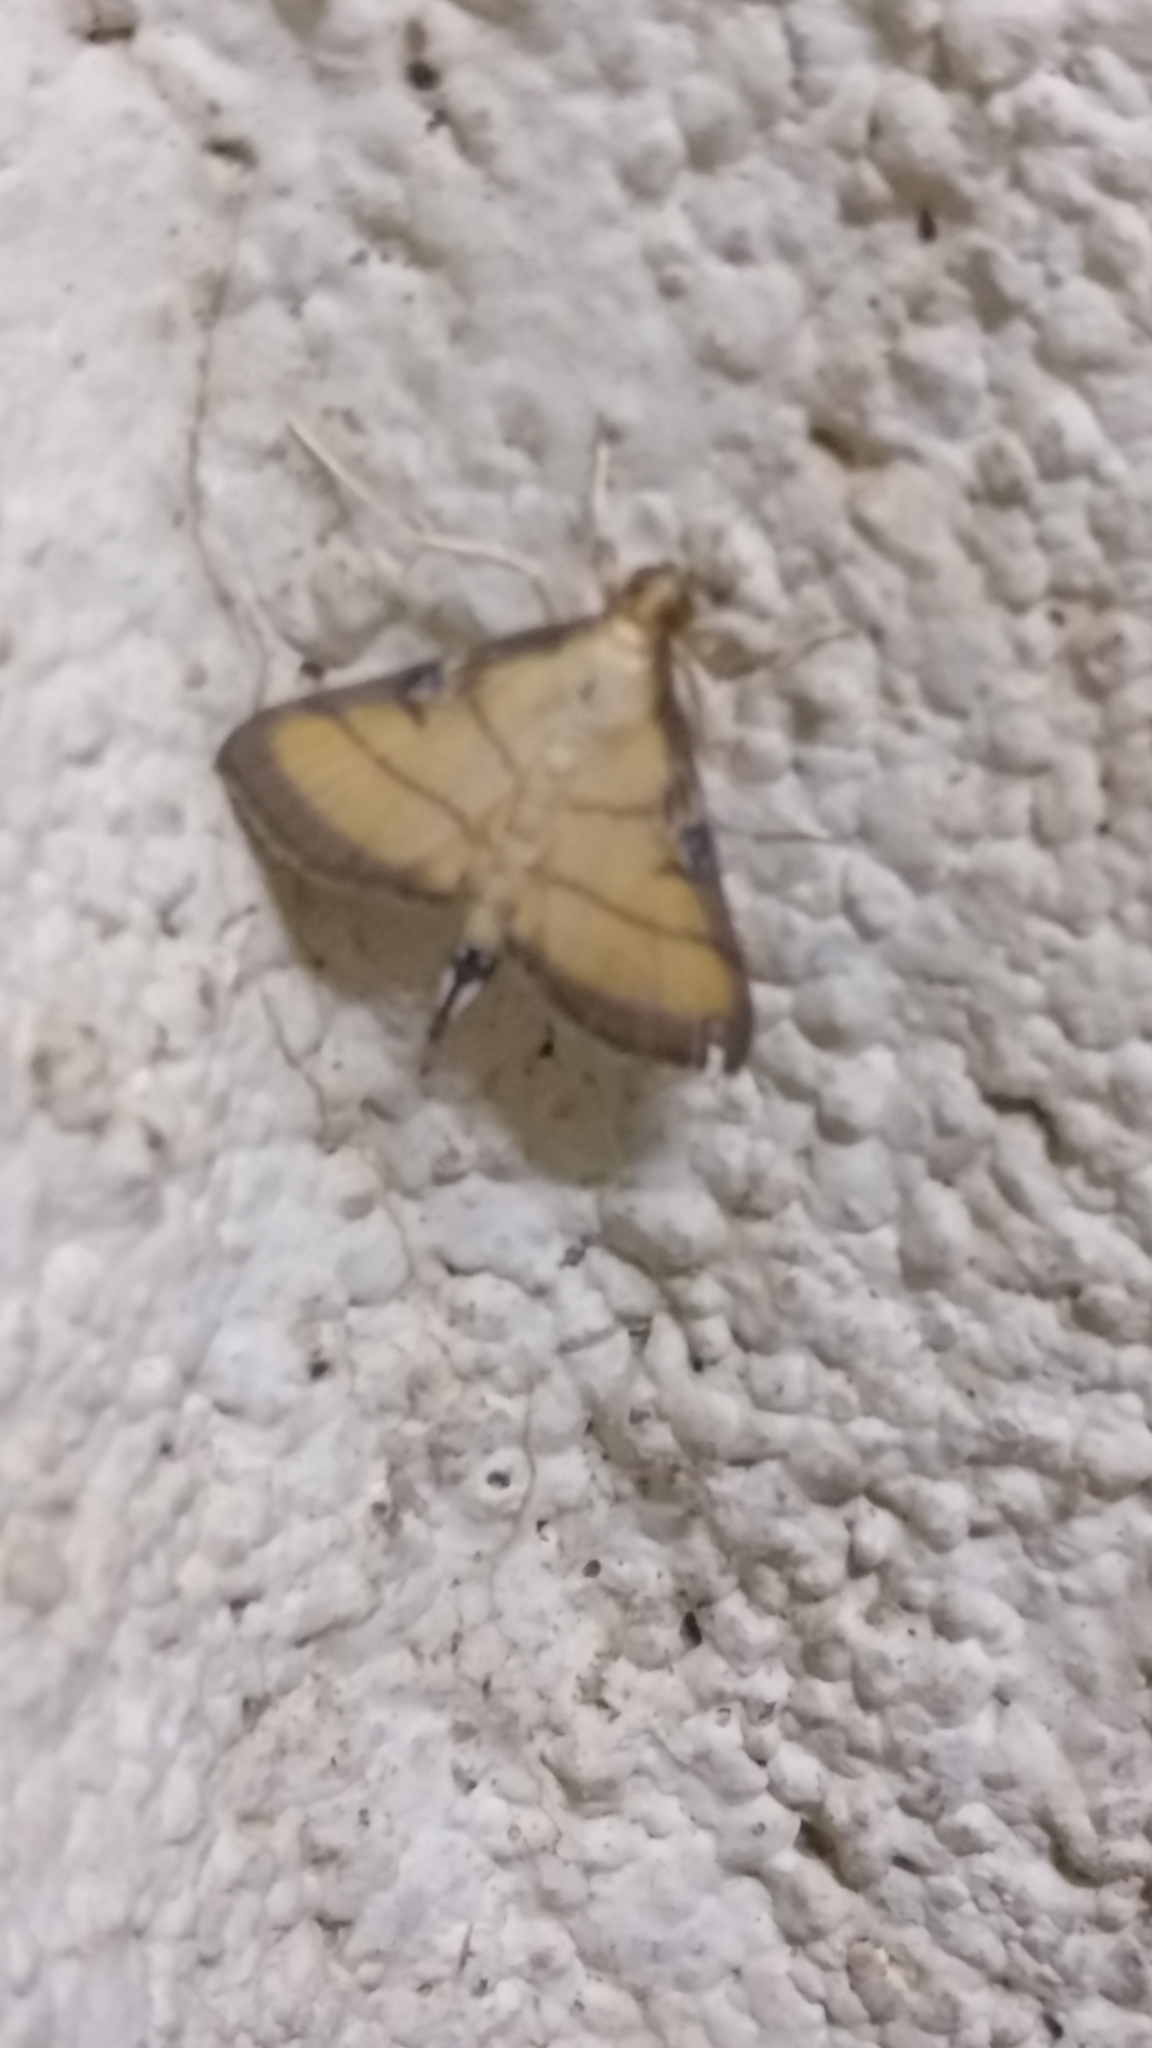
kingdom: Animalia
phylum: Arthropoda
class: Insecta
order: Lepidoptera
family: Crambidae
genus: Cnaphalocrocis
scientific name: Cnaphalocrocis medinalis
